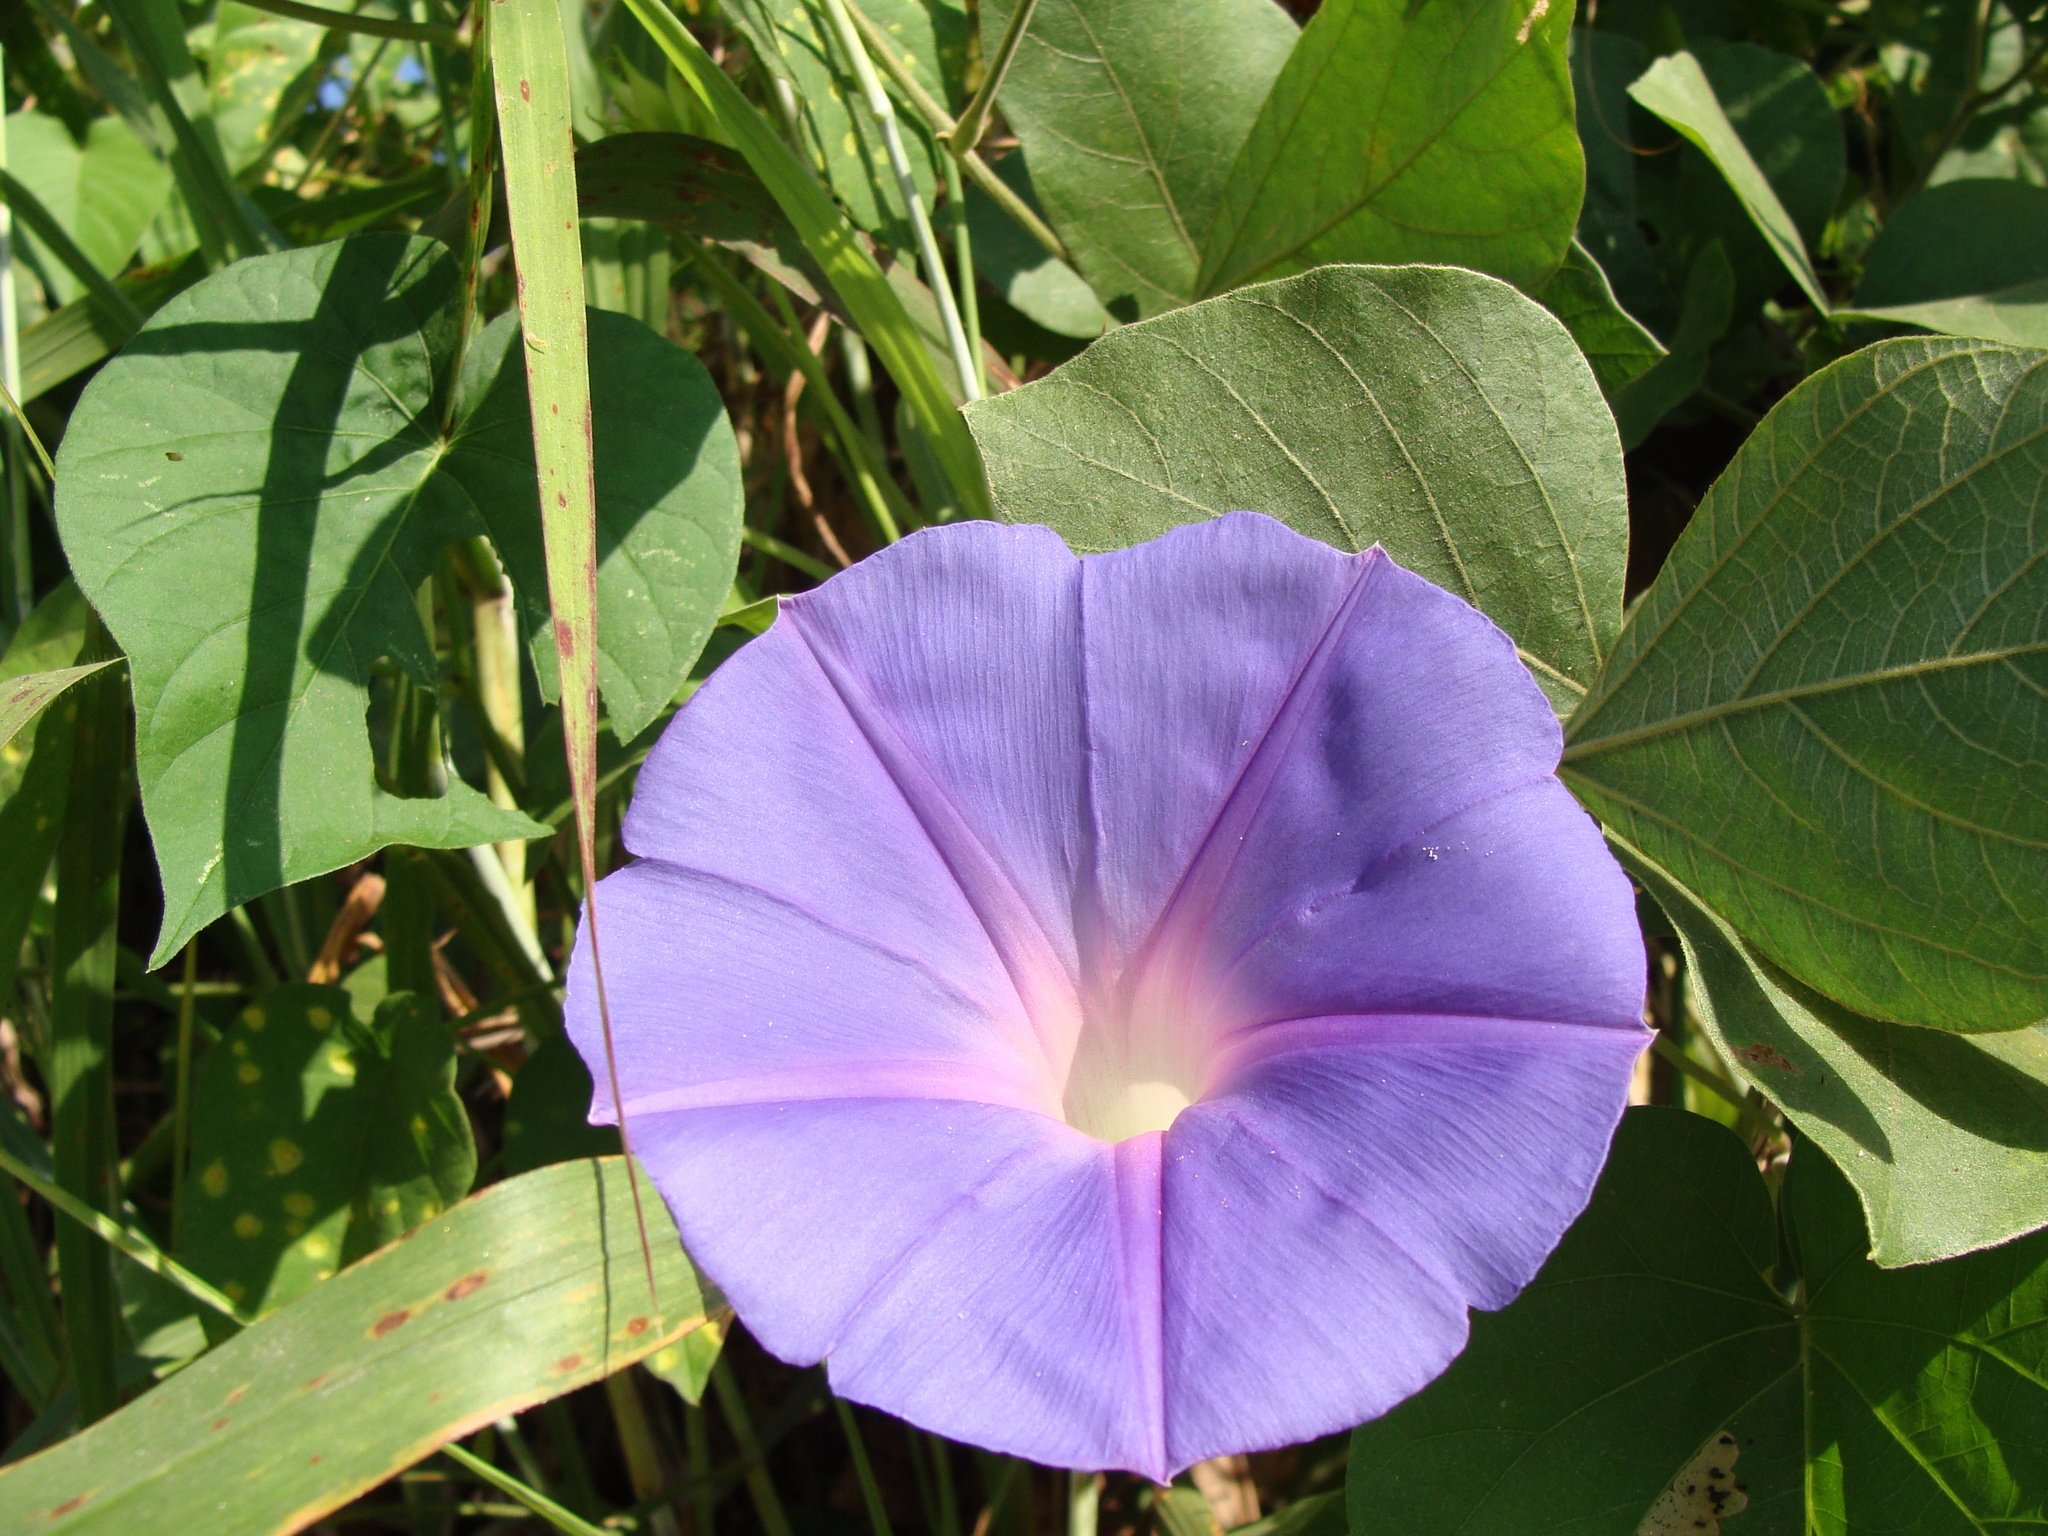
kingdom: Plantae
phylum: Tracheophyta
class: Magnoliopsida
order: Solanales
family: Convolvulaceae
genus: Ipomoea
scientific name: Ipomoea mitchelliae
